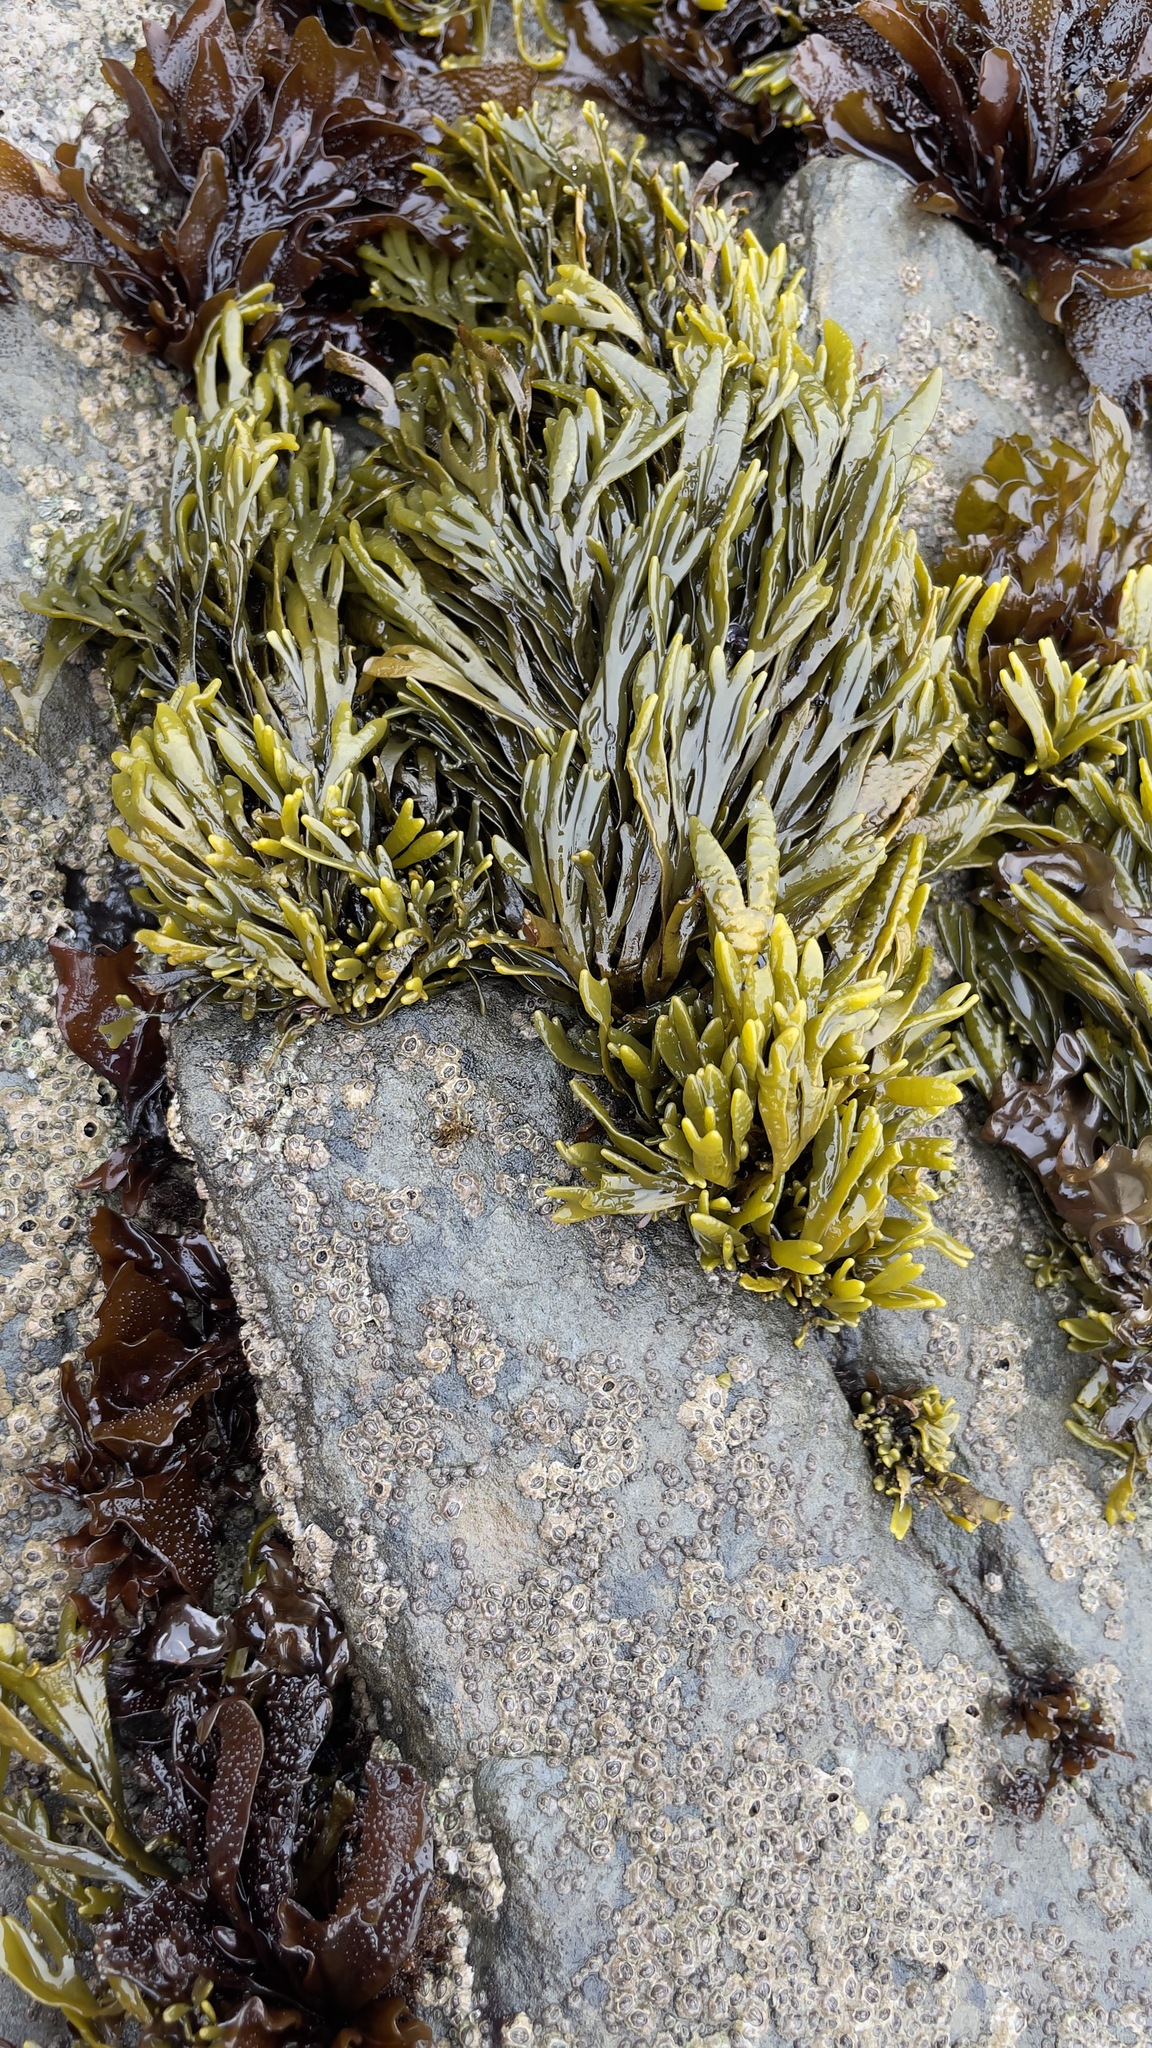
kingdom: Chromista
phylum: Ochrophyta
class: Phaeophyceae
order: Fucales
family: Fucaceae
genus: Pelvetiopsis
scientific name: Pelvetiopsis limitata
